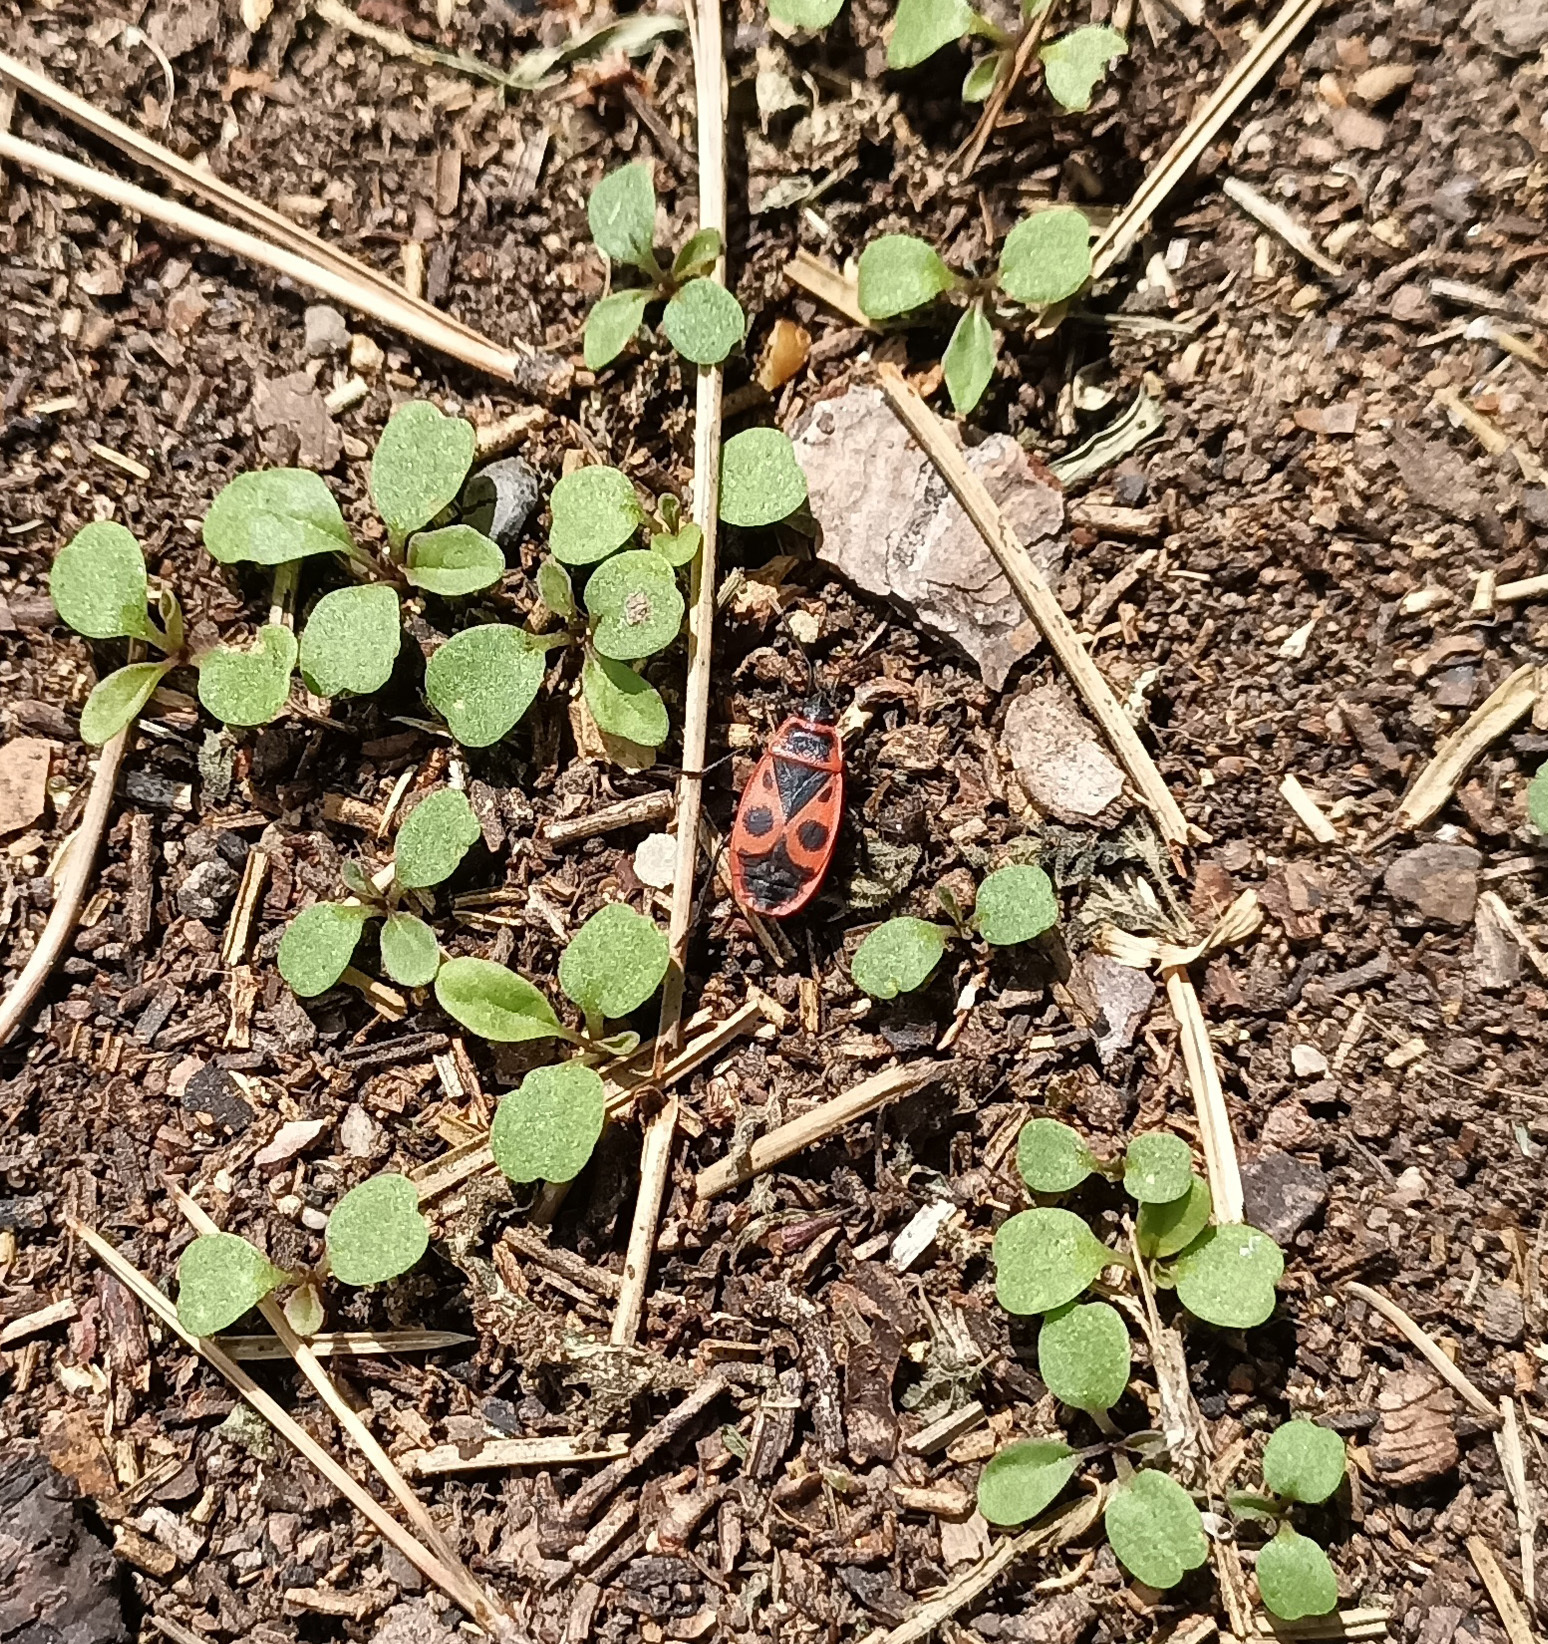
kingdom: Animalia
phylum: Arthropoda
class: Insecta
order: Hemiptera
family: Pyrrhocoridae
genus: Pyrrhocoris
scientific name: Pyrrhocoris apterus
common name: Firebug
